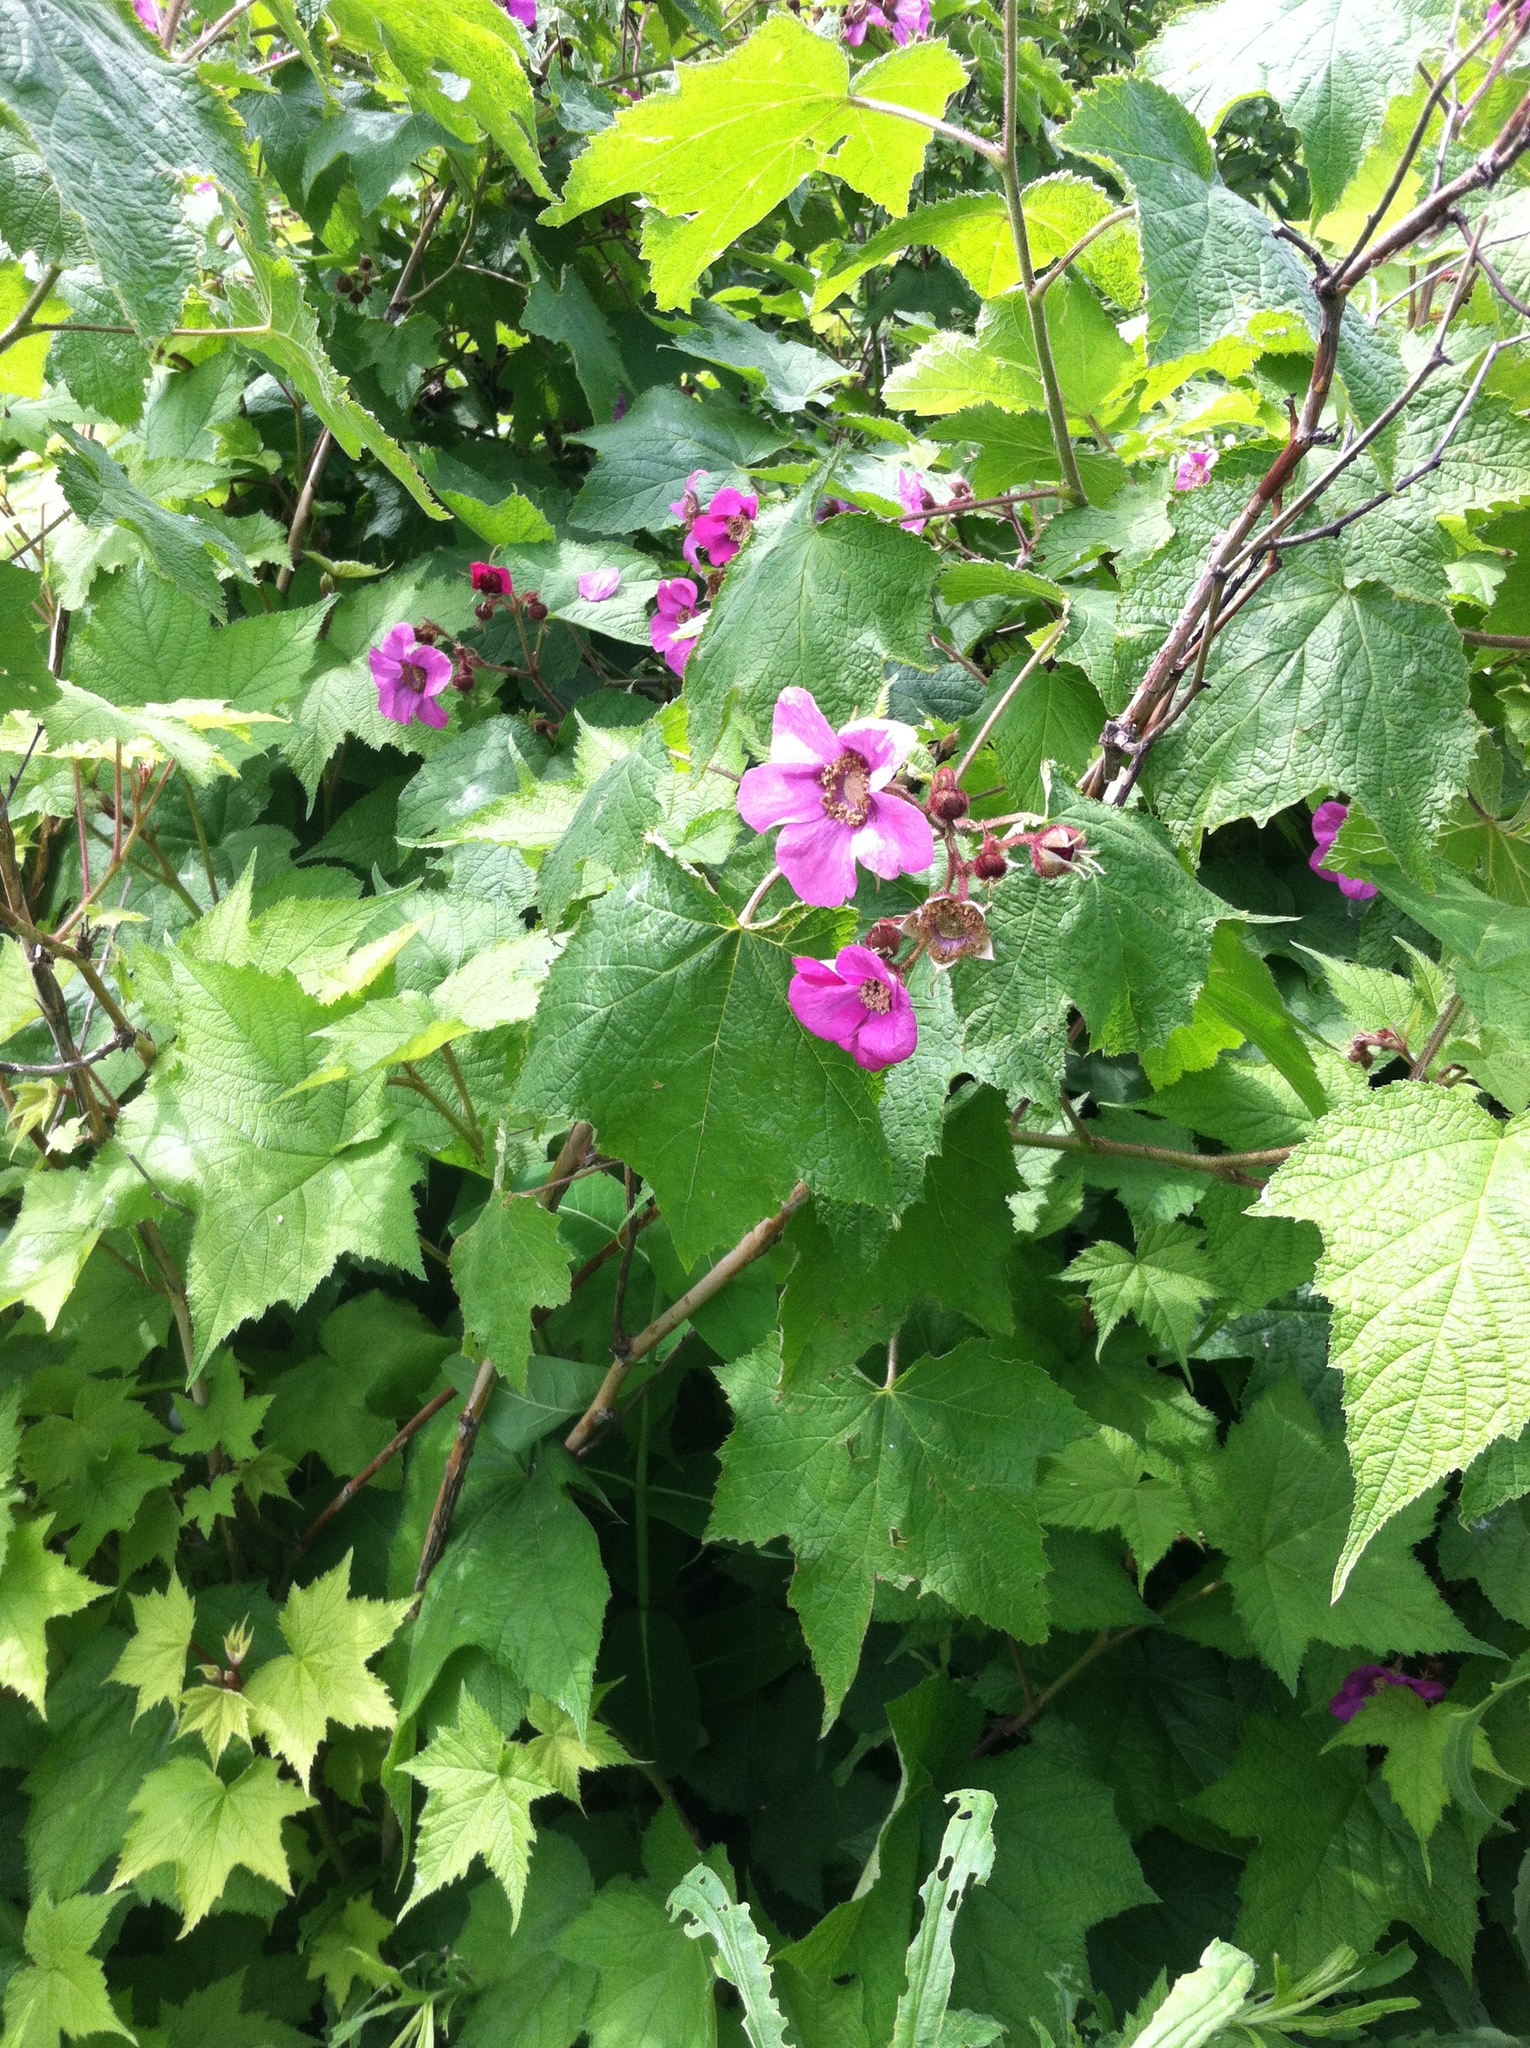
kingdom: Plantae
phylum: Tracheophyta
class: Magnoliopsida
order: Rosales
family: Rosaceae
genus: Rubus
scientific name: Rubus odoratus
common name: Purple-flowered raspberry
